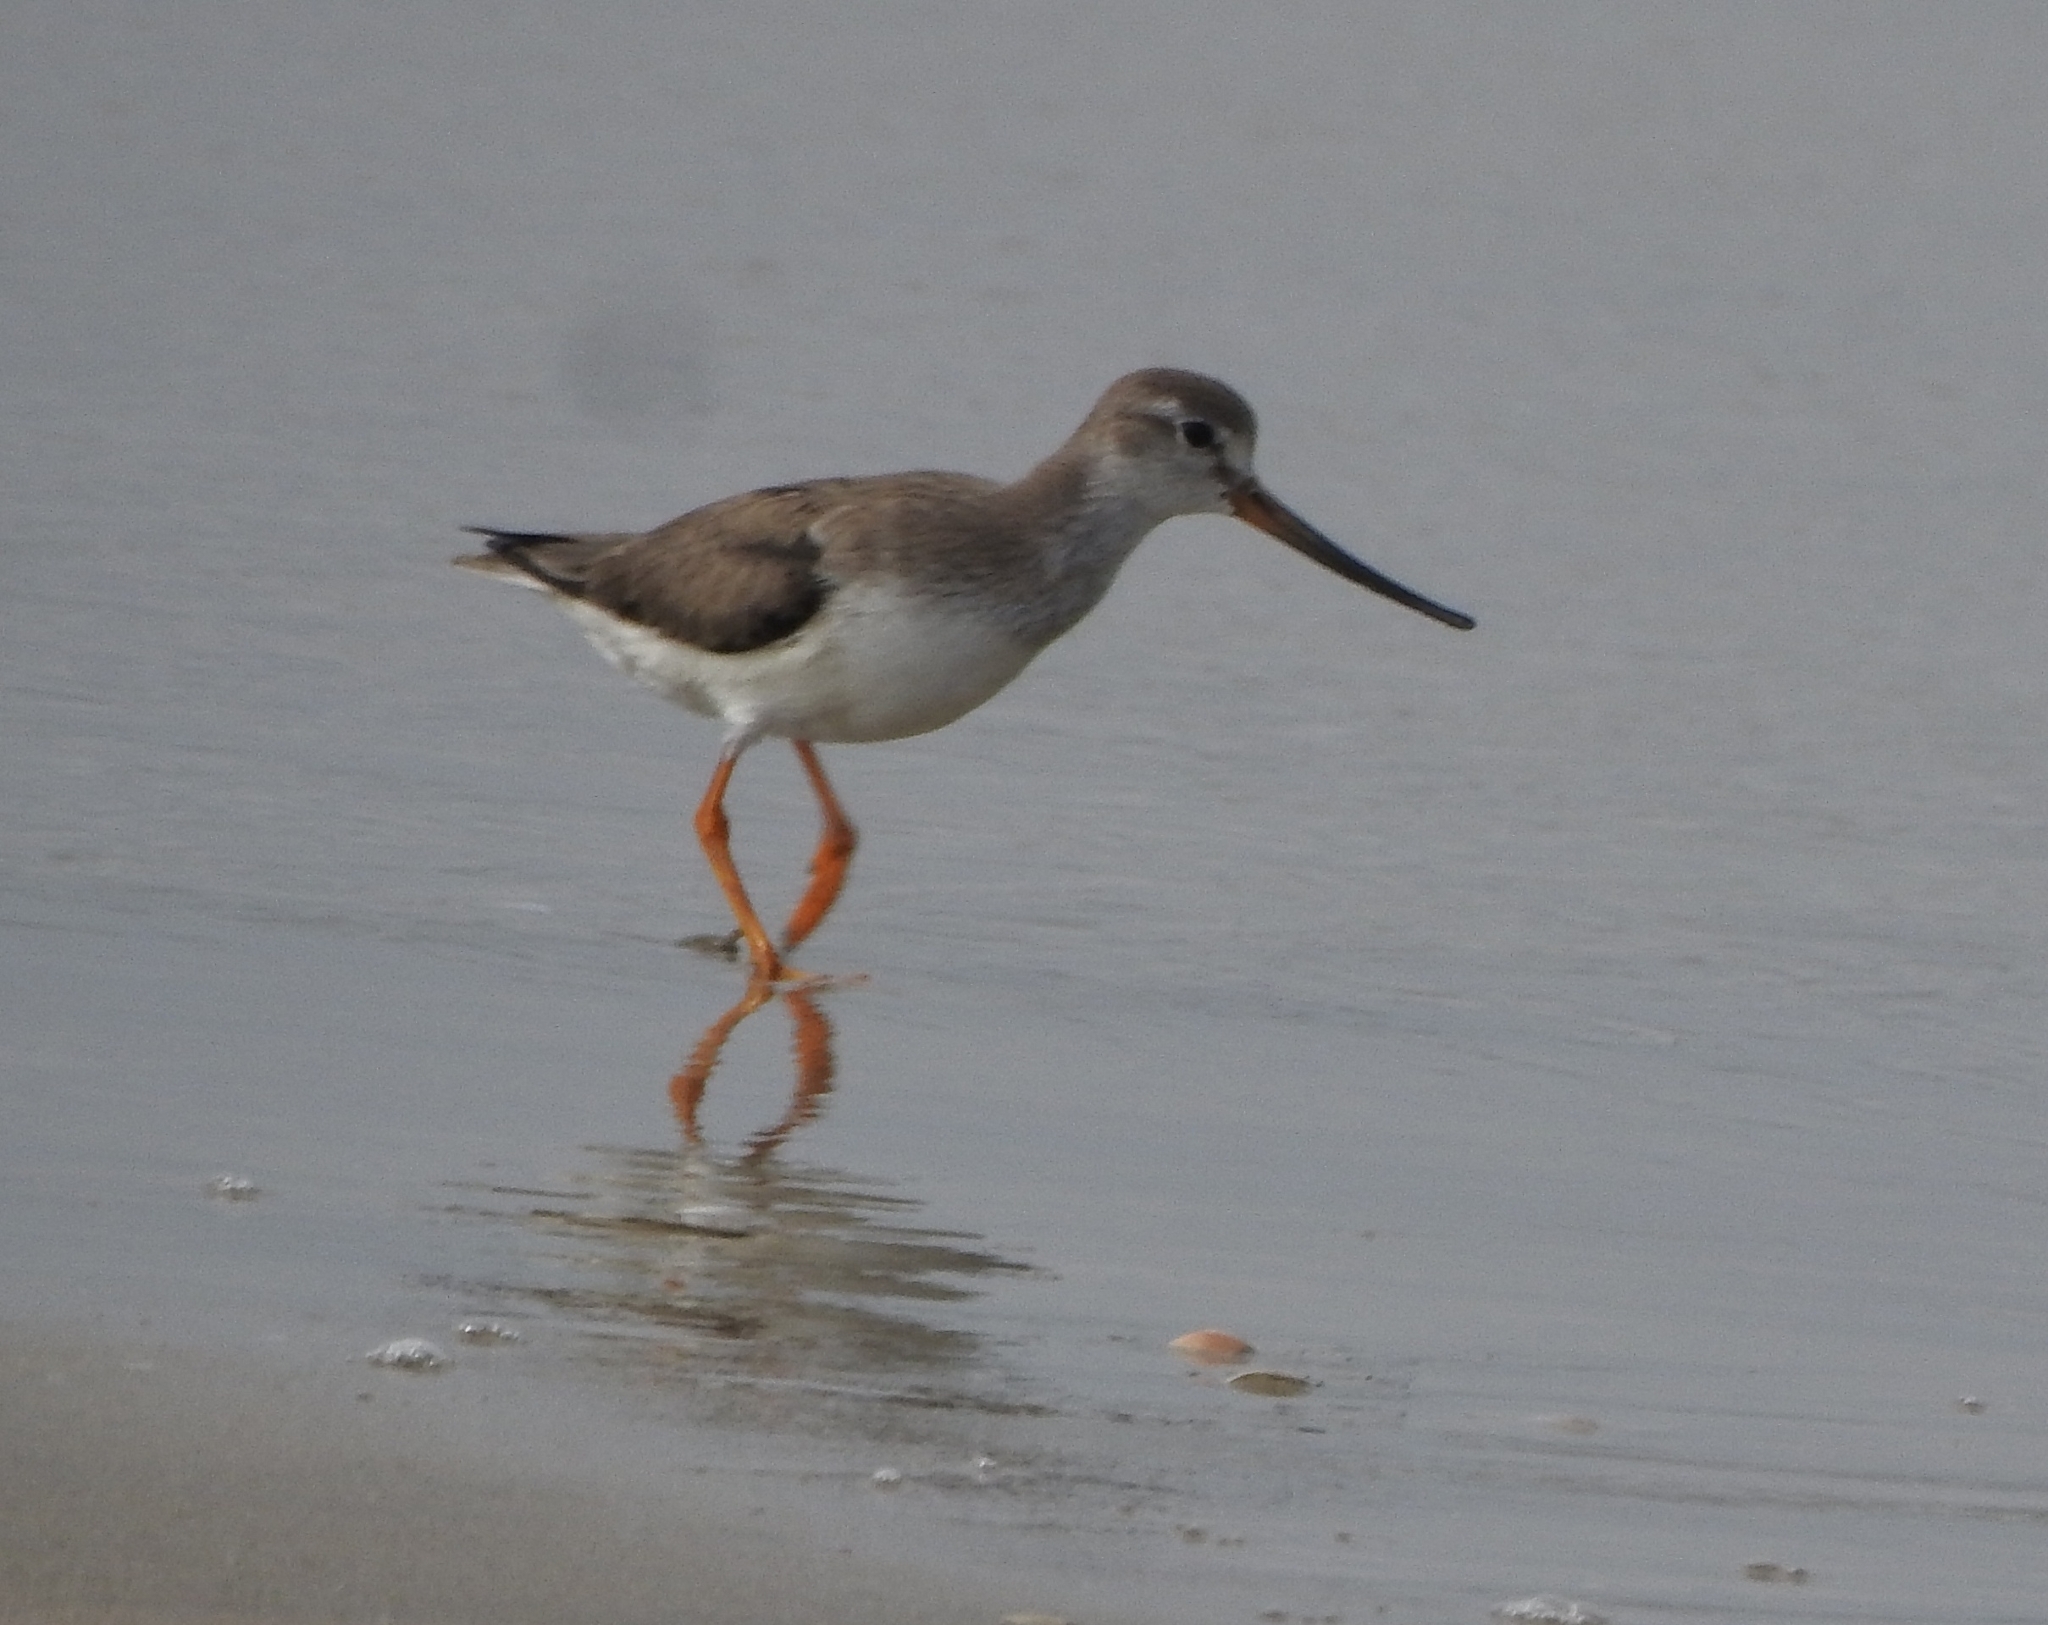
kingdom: Animalia
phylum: Chordata
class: Aves
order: Charadriiformes
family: Scolopacidae
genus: Xenus
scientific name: Xenus cinereus
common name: Terek sandpiper
